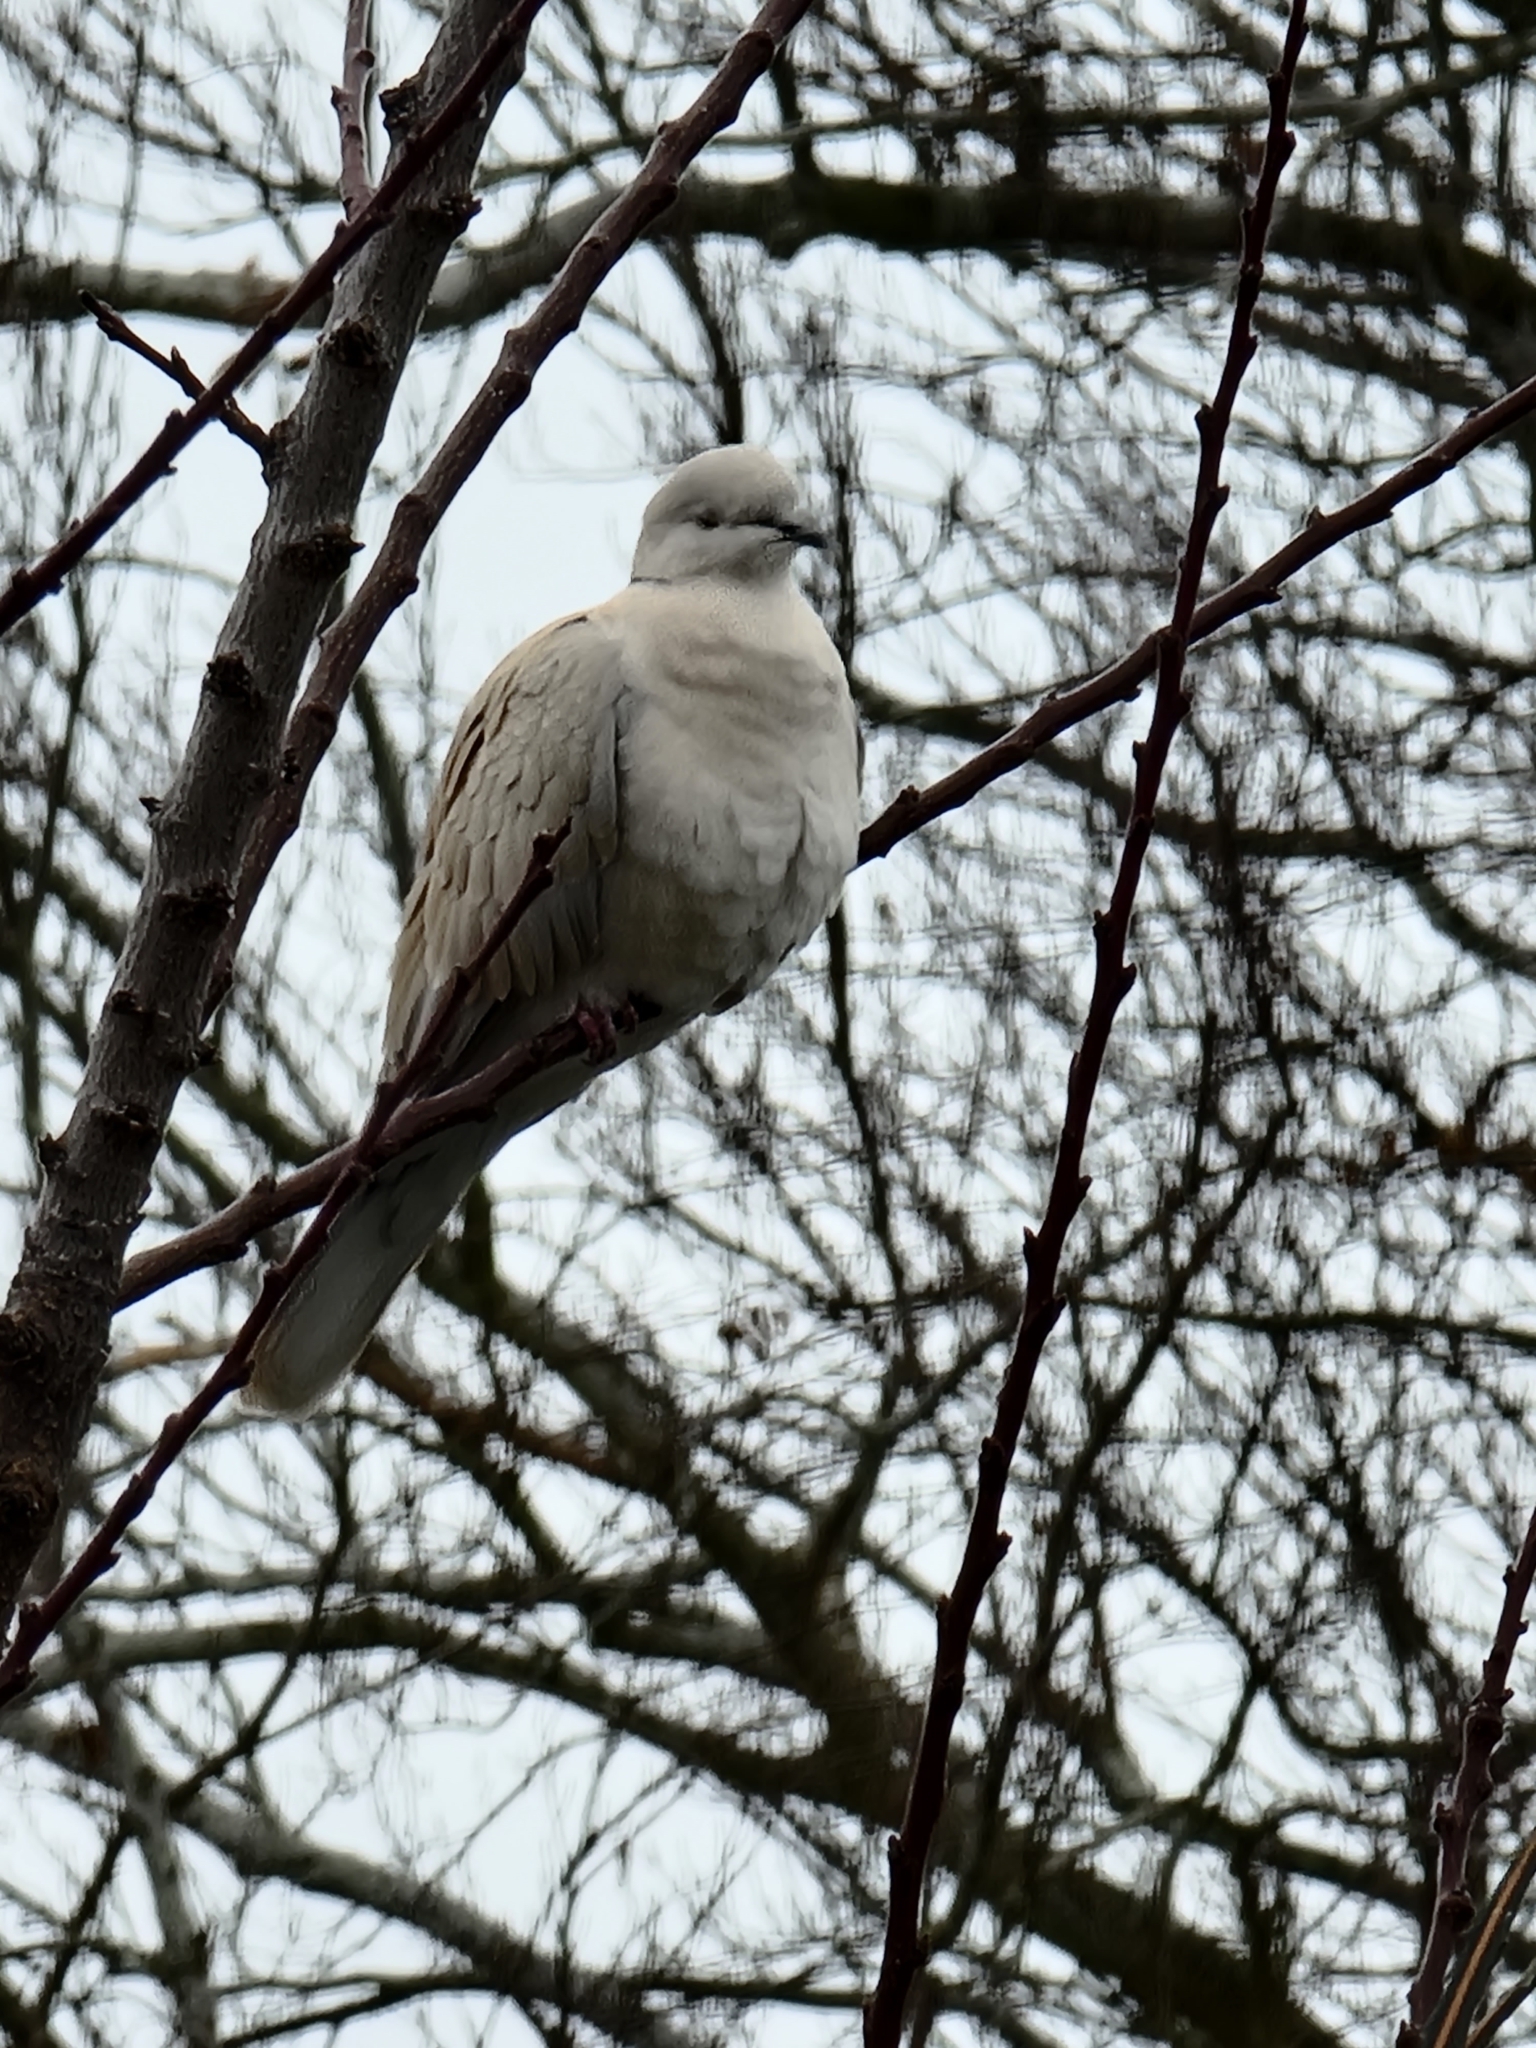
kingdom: Animalia
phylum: Chordata
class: Aves
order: Columbiformes
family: Columbidae
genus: Streptopelia
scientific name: Streptopelia roseogrisea
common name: African collared dove
